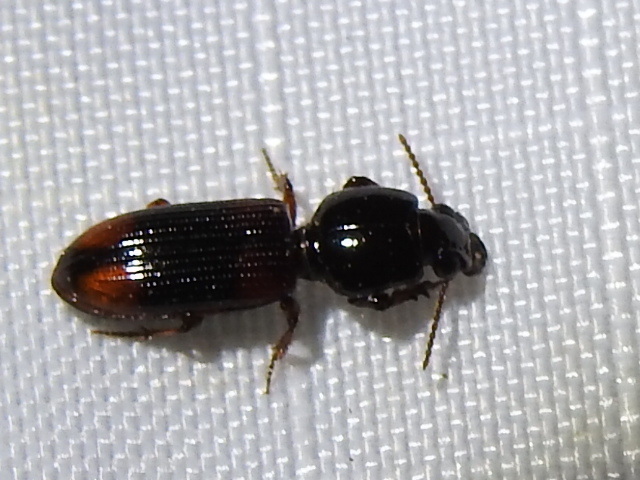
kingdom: Animalia
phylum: Arthropoda
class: Insecta
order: Coleoptera
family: Carabidae
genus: Aspidoglossa
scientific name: Aspidoglossa subangulata
